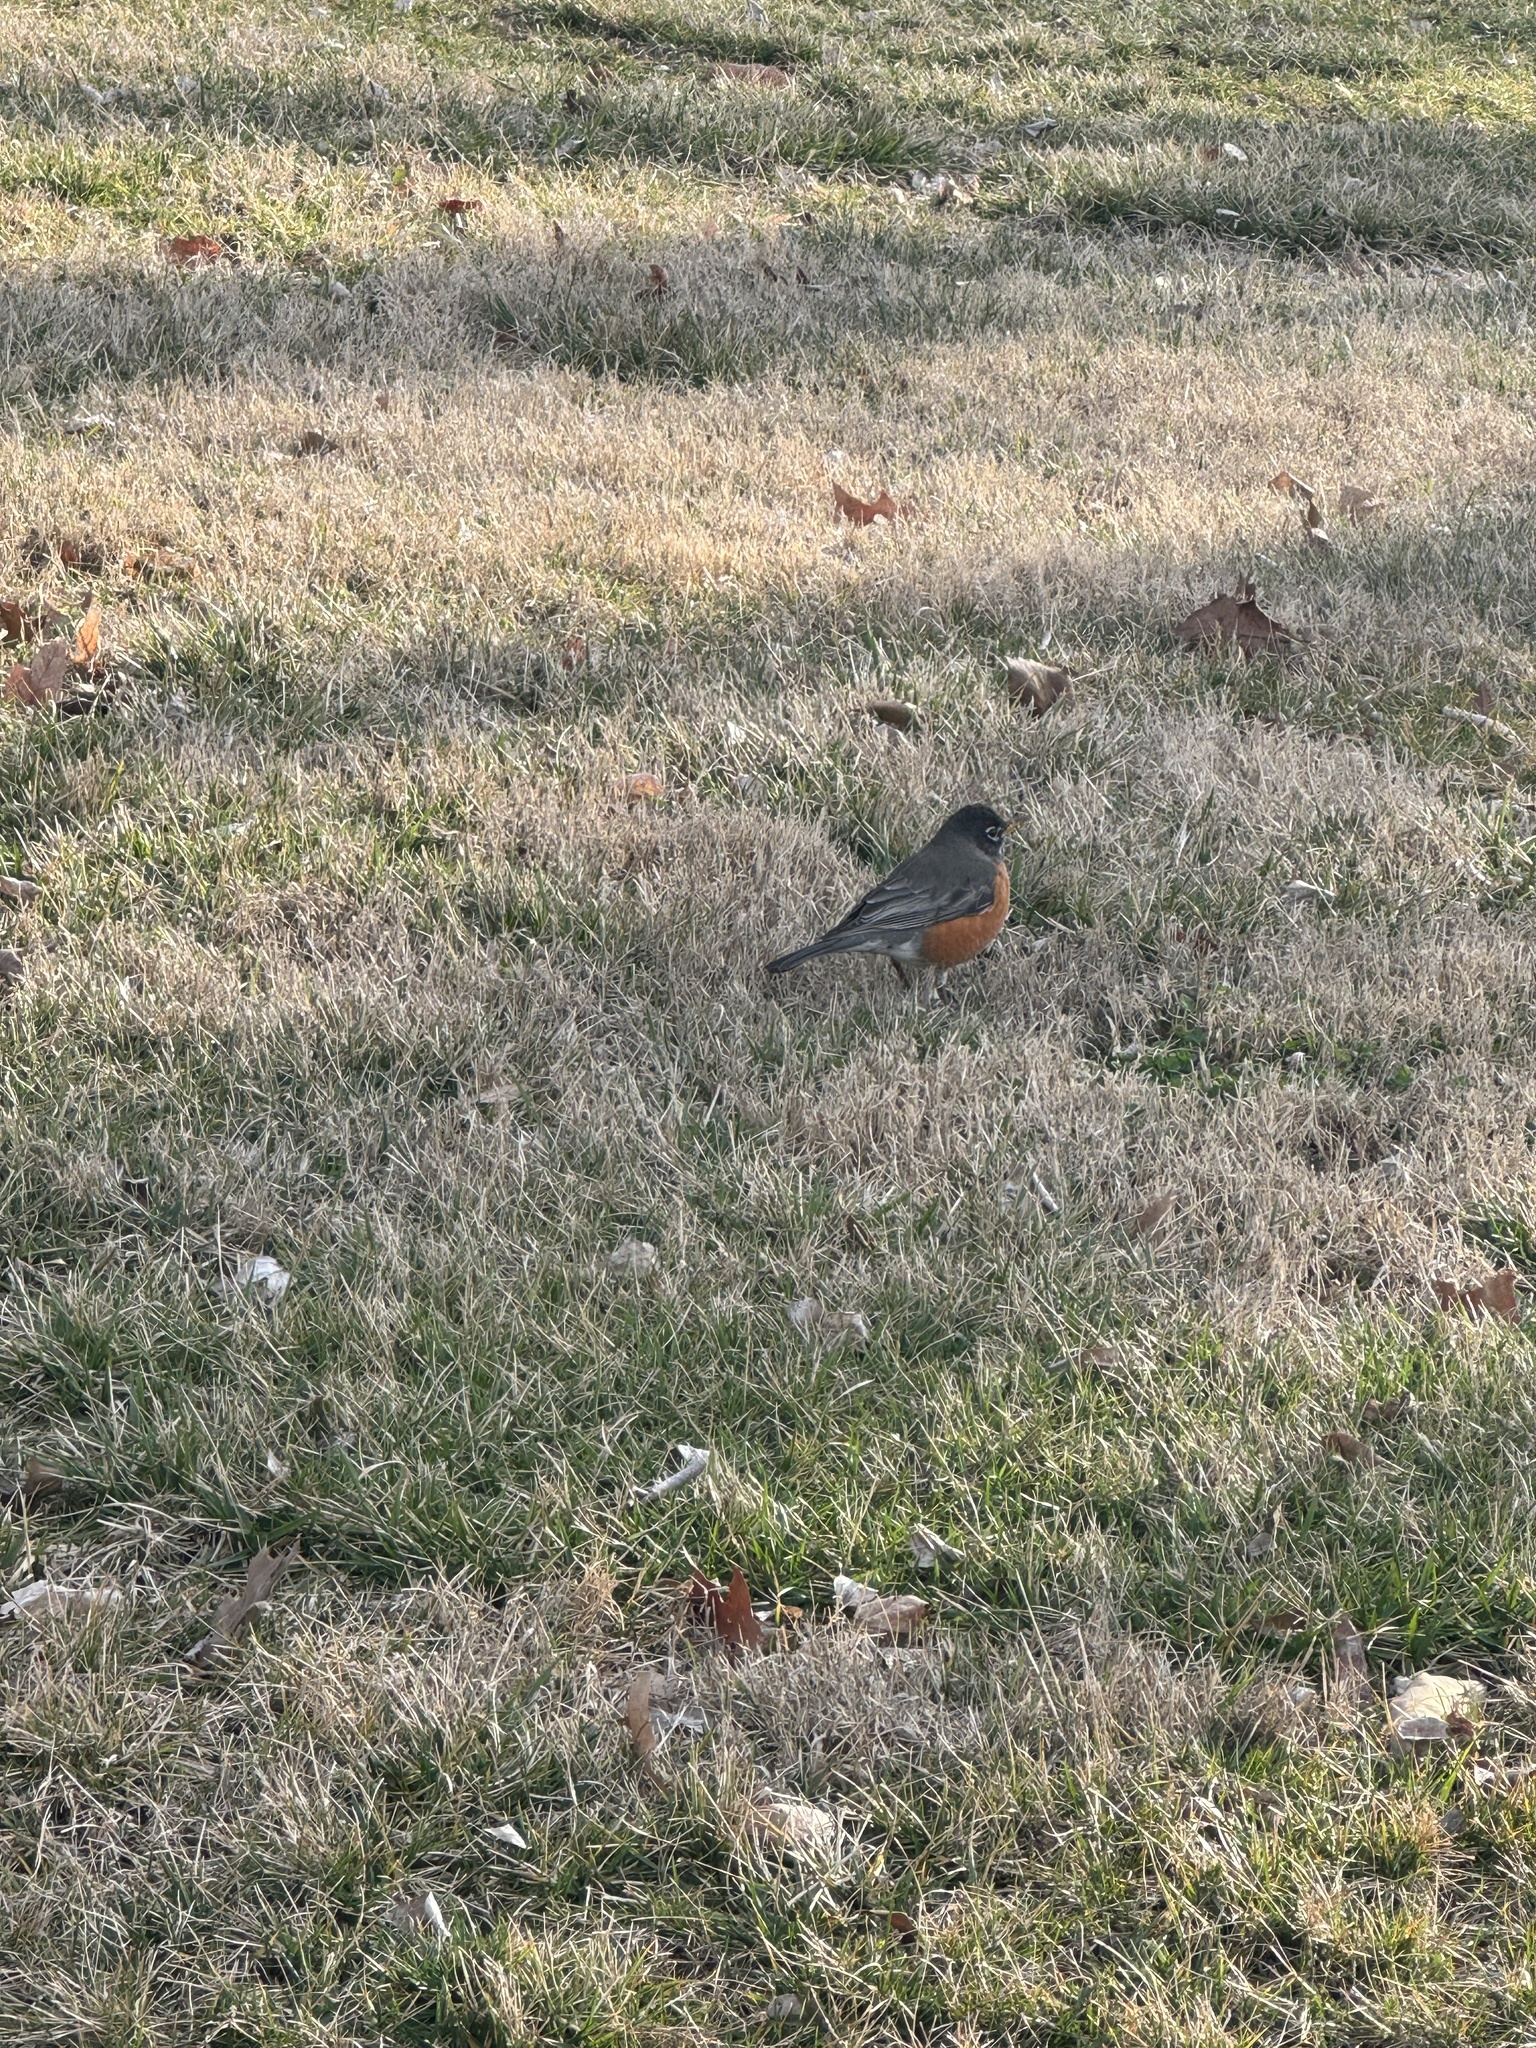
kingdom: Animalia
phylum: Chordata
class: Aves
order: Passeriformes
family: Turdidae
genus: Turdus
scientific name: Turdus migratorius
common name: American robin
